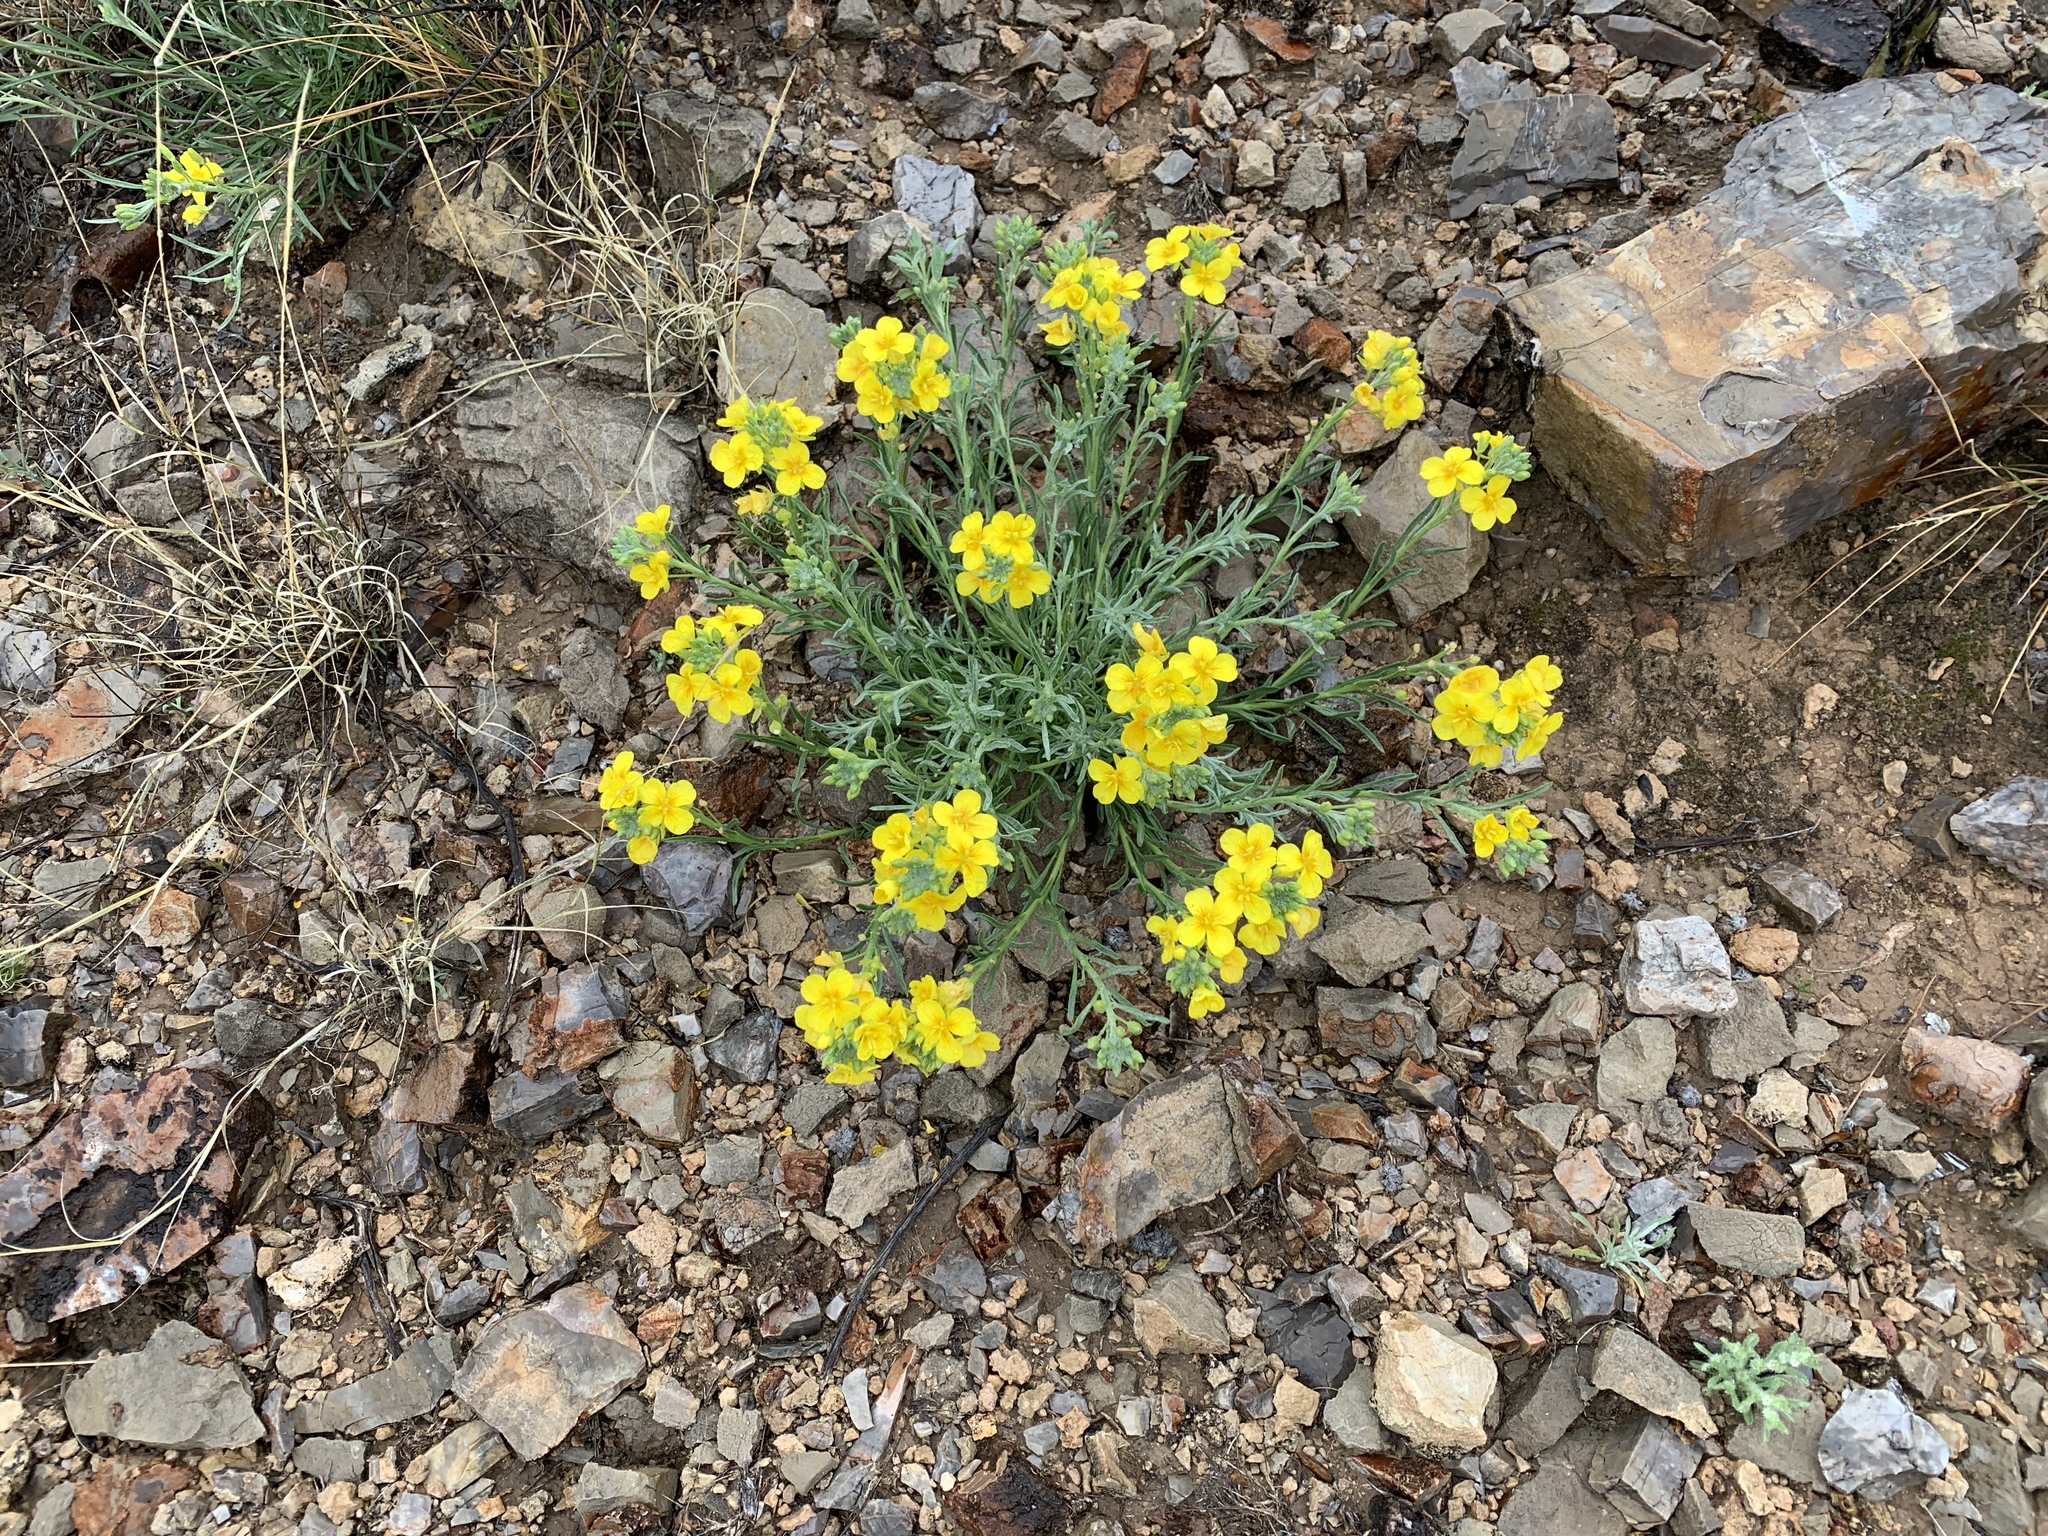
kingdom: Plantae
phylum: Tracheophyta
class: Magnoliopsida
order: Brassicales
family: Brassicaceae
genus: Physaria
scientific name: Physaria fendleri
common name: Fendler's bladderpod
